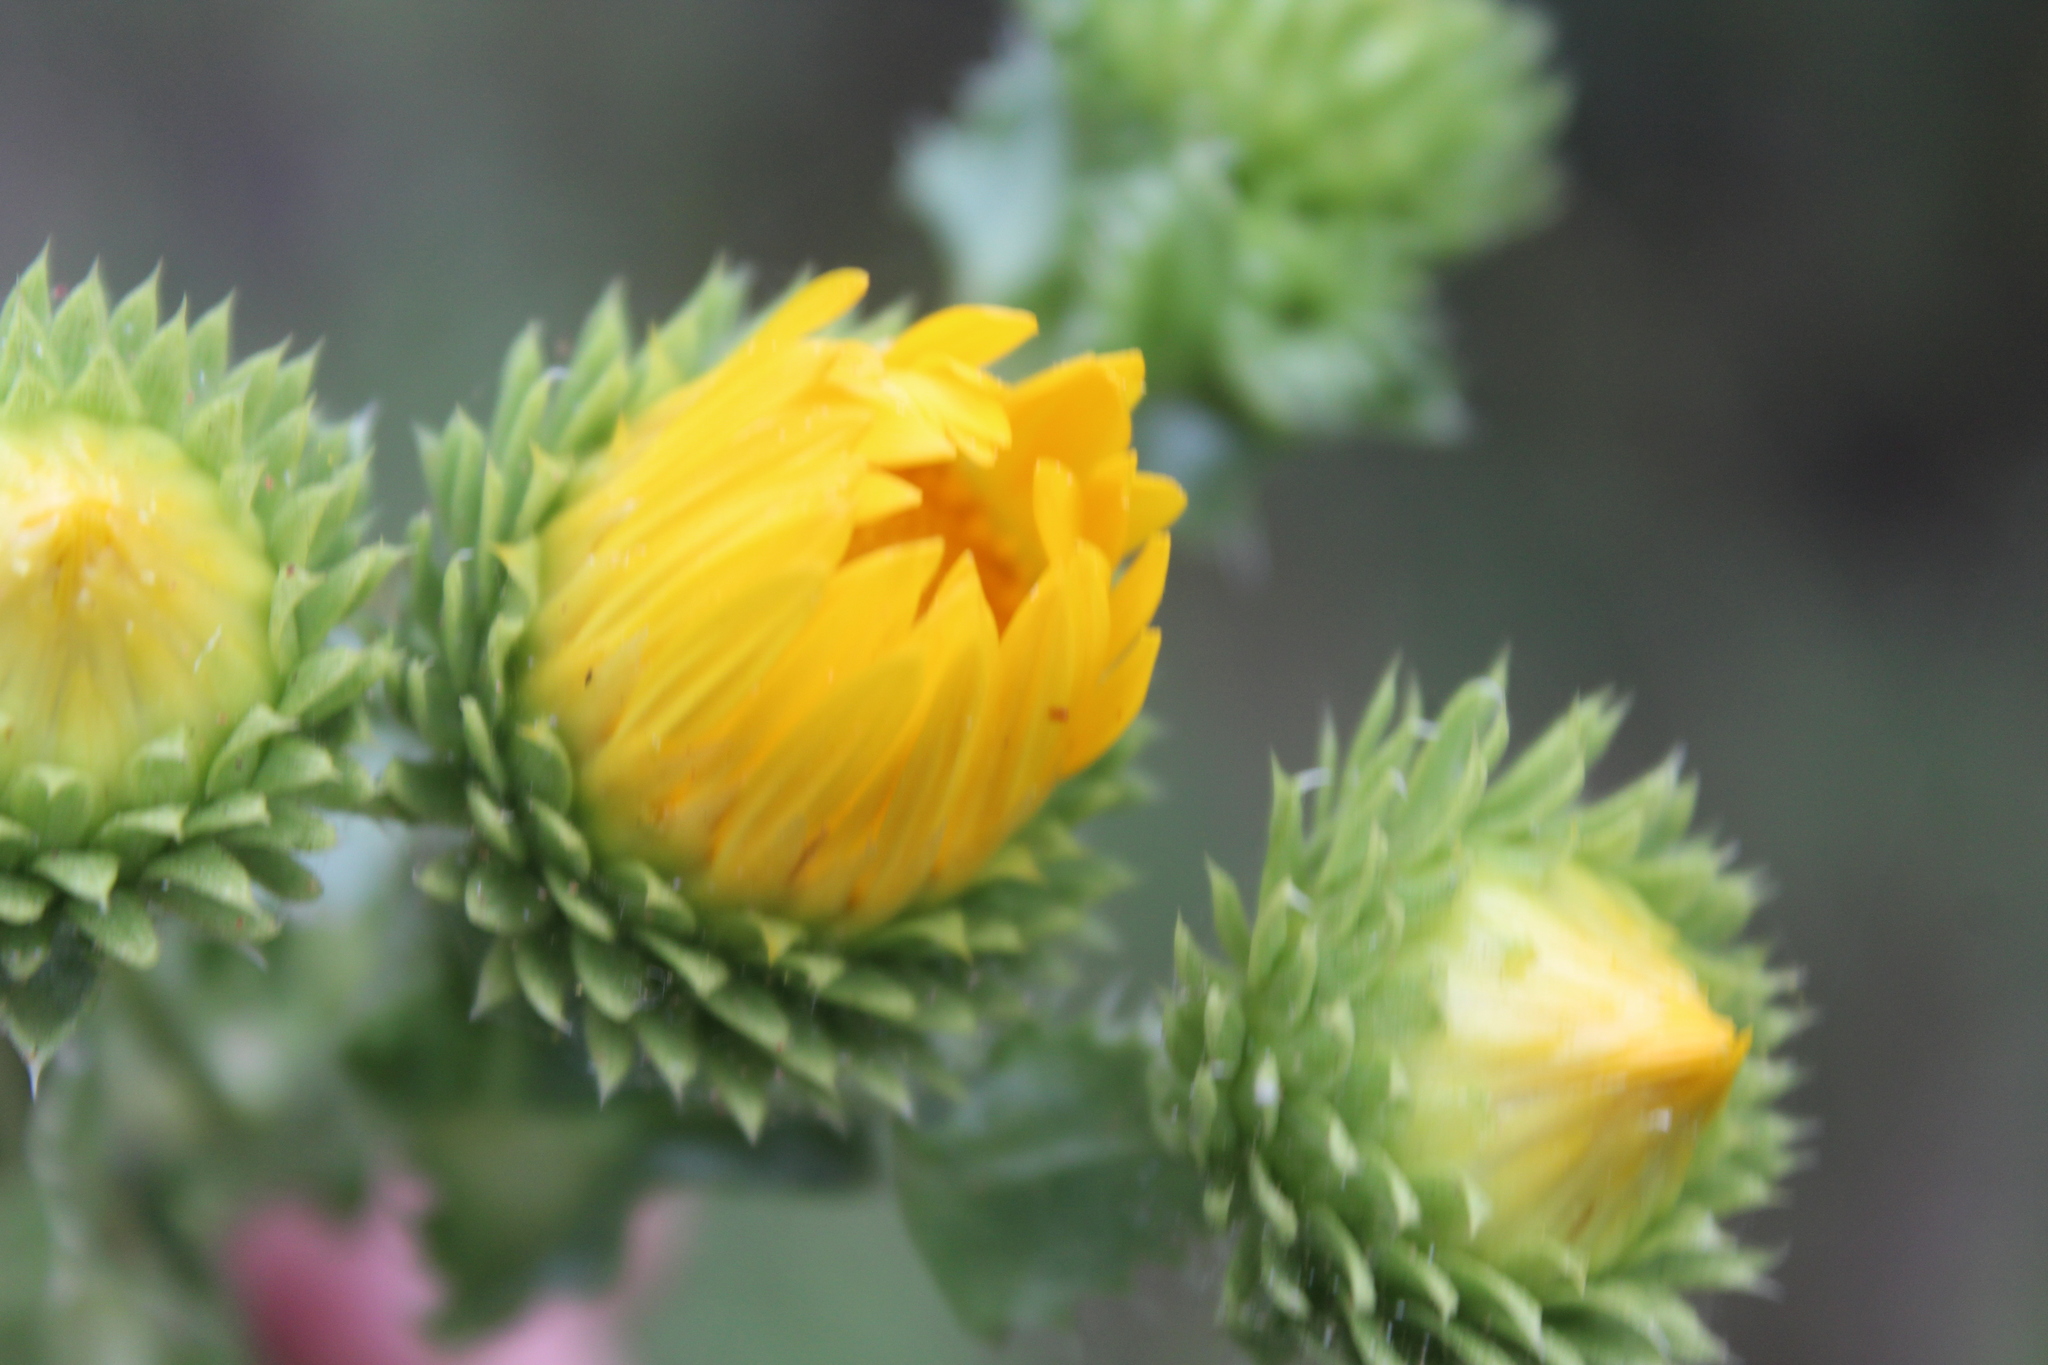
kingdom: Plantae
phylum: Tracheophyta
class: Magnoliopsida
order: Asterales
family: Asteraceae
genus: Grindelia
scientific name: Grindelia ciliata
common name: Goldenweed
